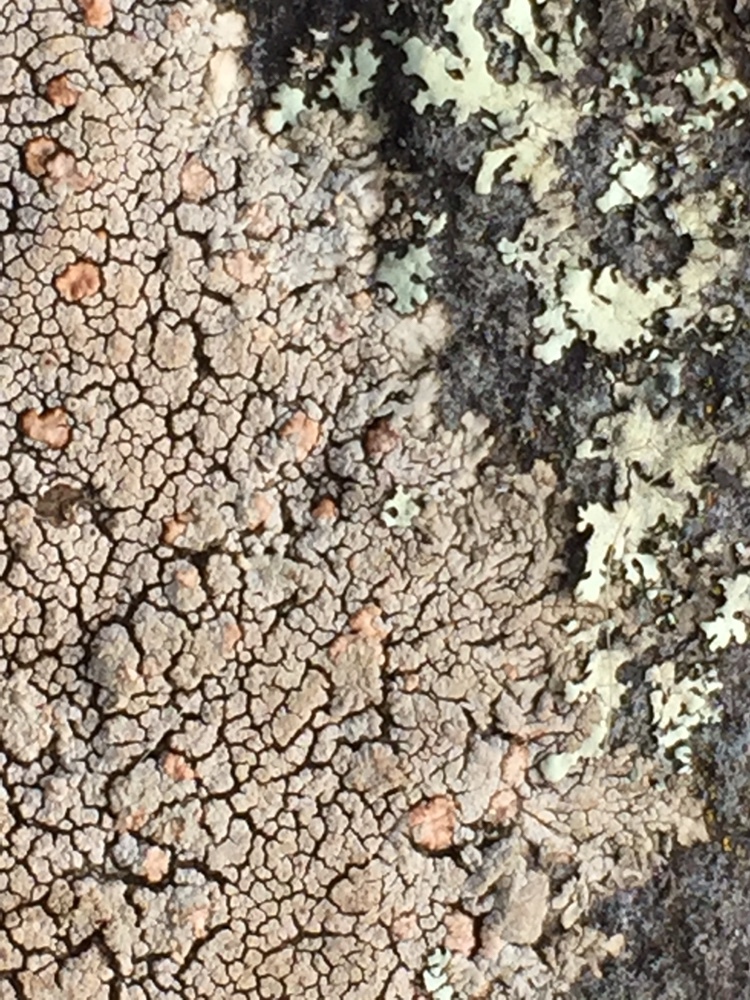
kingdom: Fungi
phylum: Ascomycota
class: Lecanoromycetes
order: Baeomycetales
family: Trapeliaceae
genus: Placopsis
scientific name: Placopsis perrugosa
